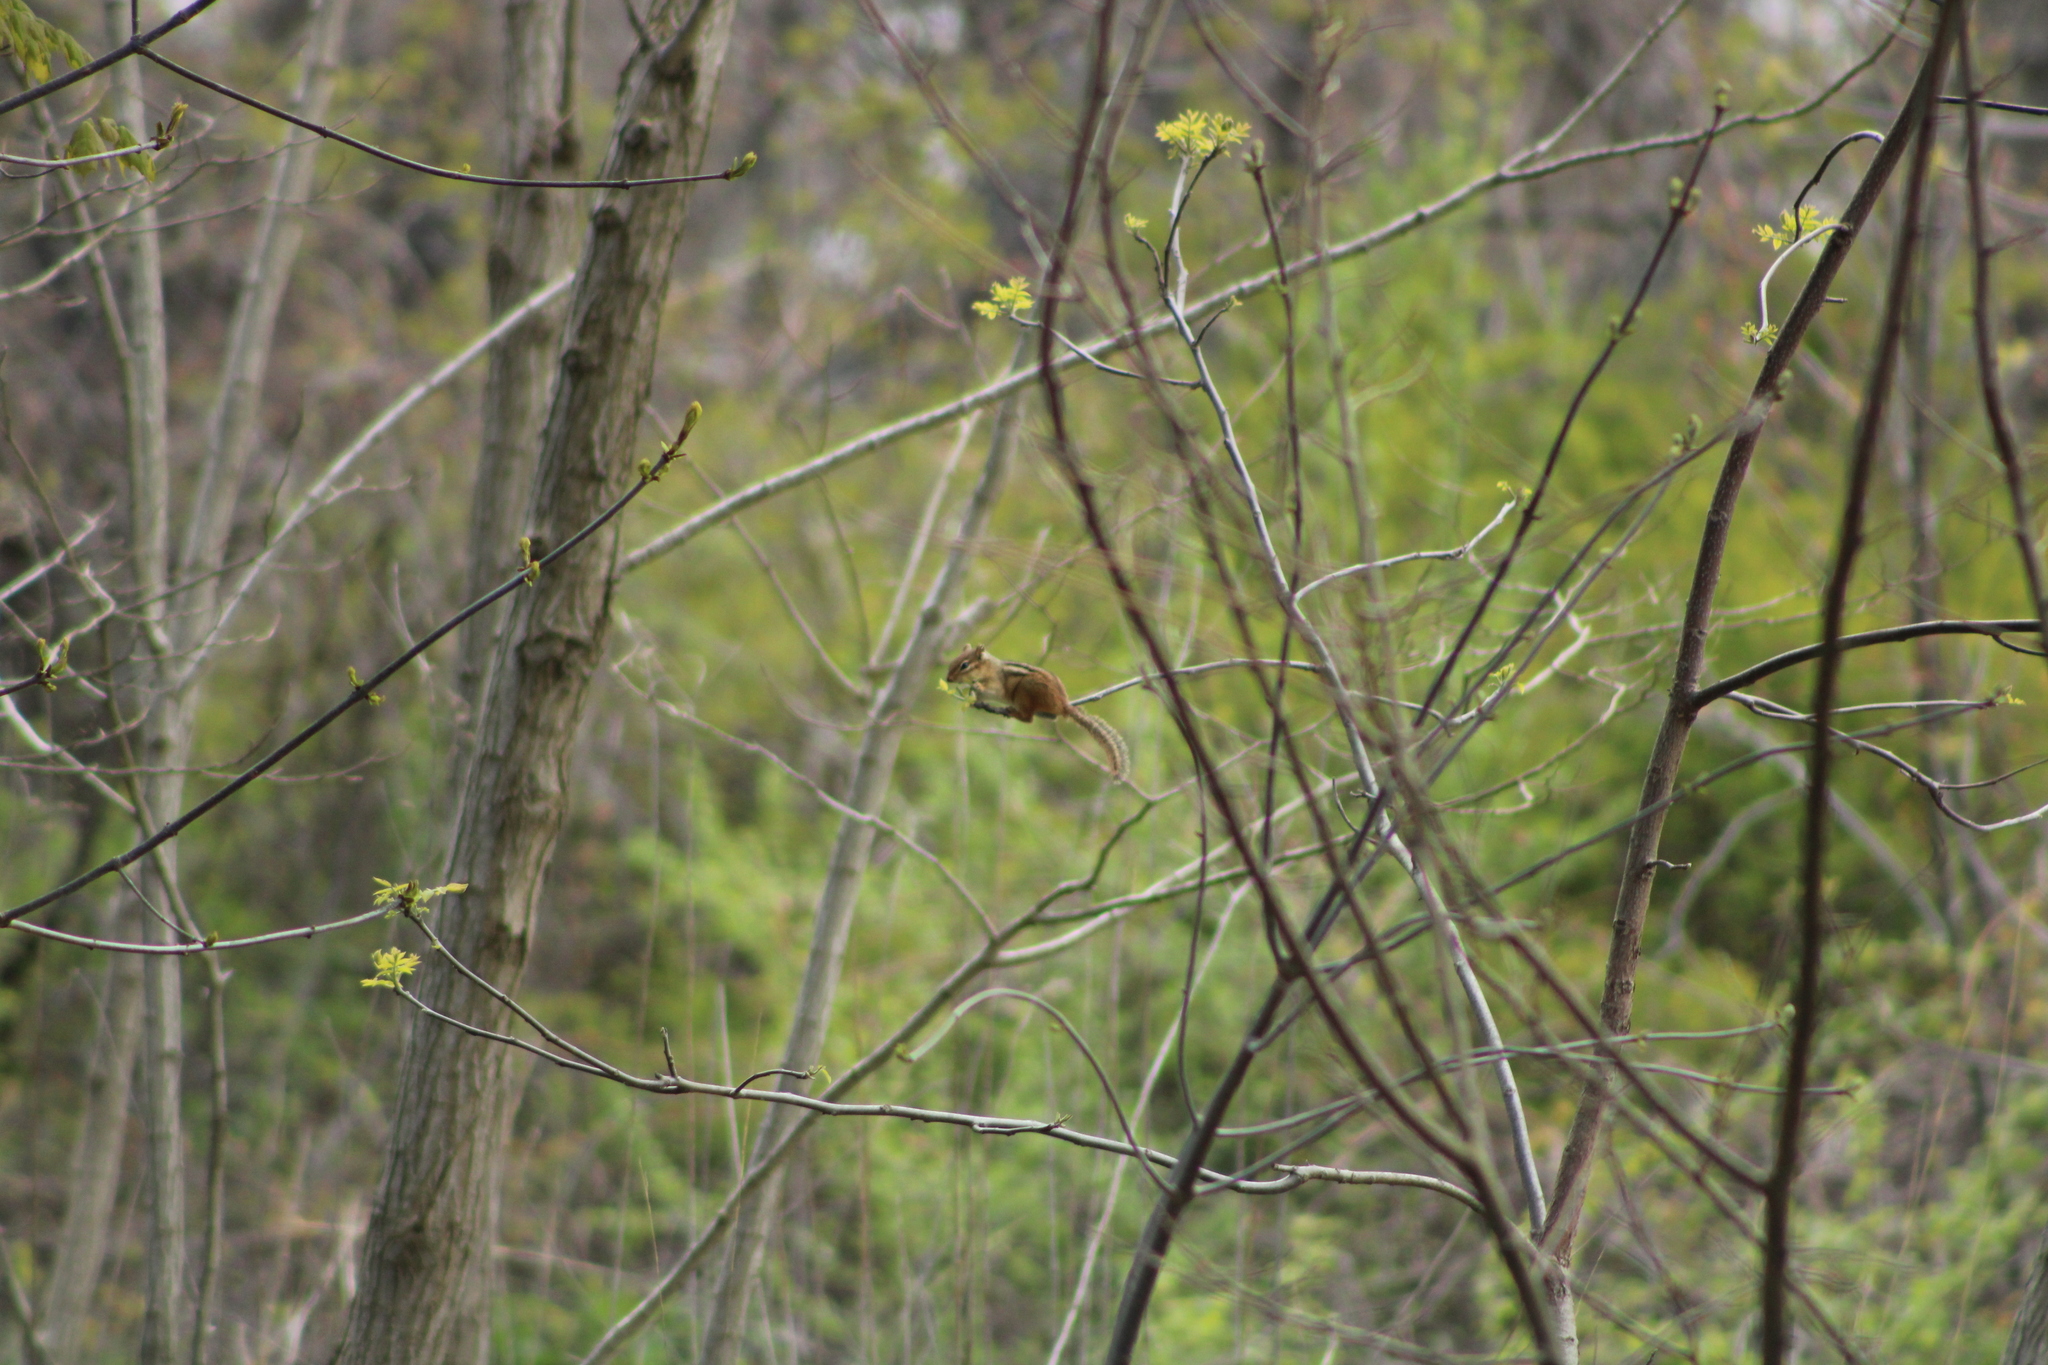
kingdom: Animalia
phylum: Chordata
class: Mammalia
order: Rodentia
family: Sciuridae
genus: Tamias
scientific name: Tamias striatus
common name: Eastern chipmunk
